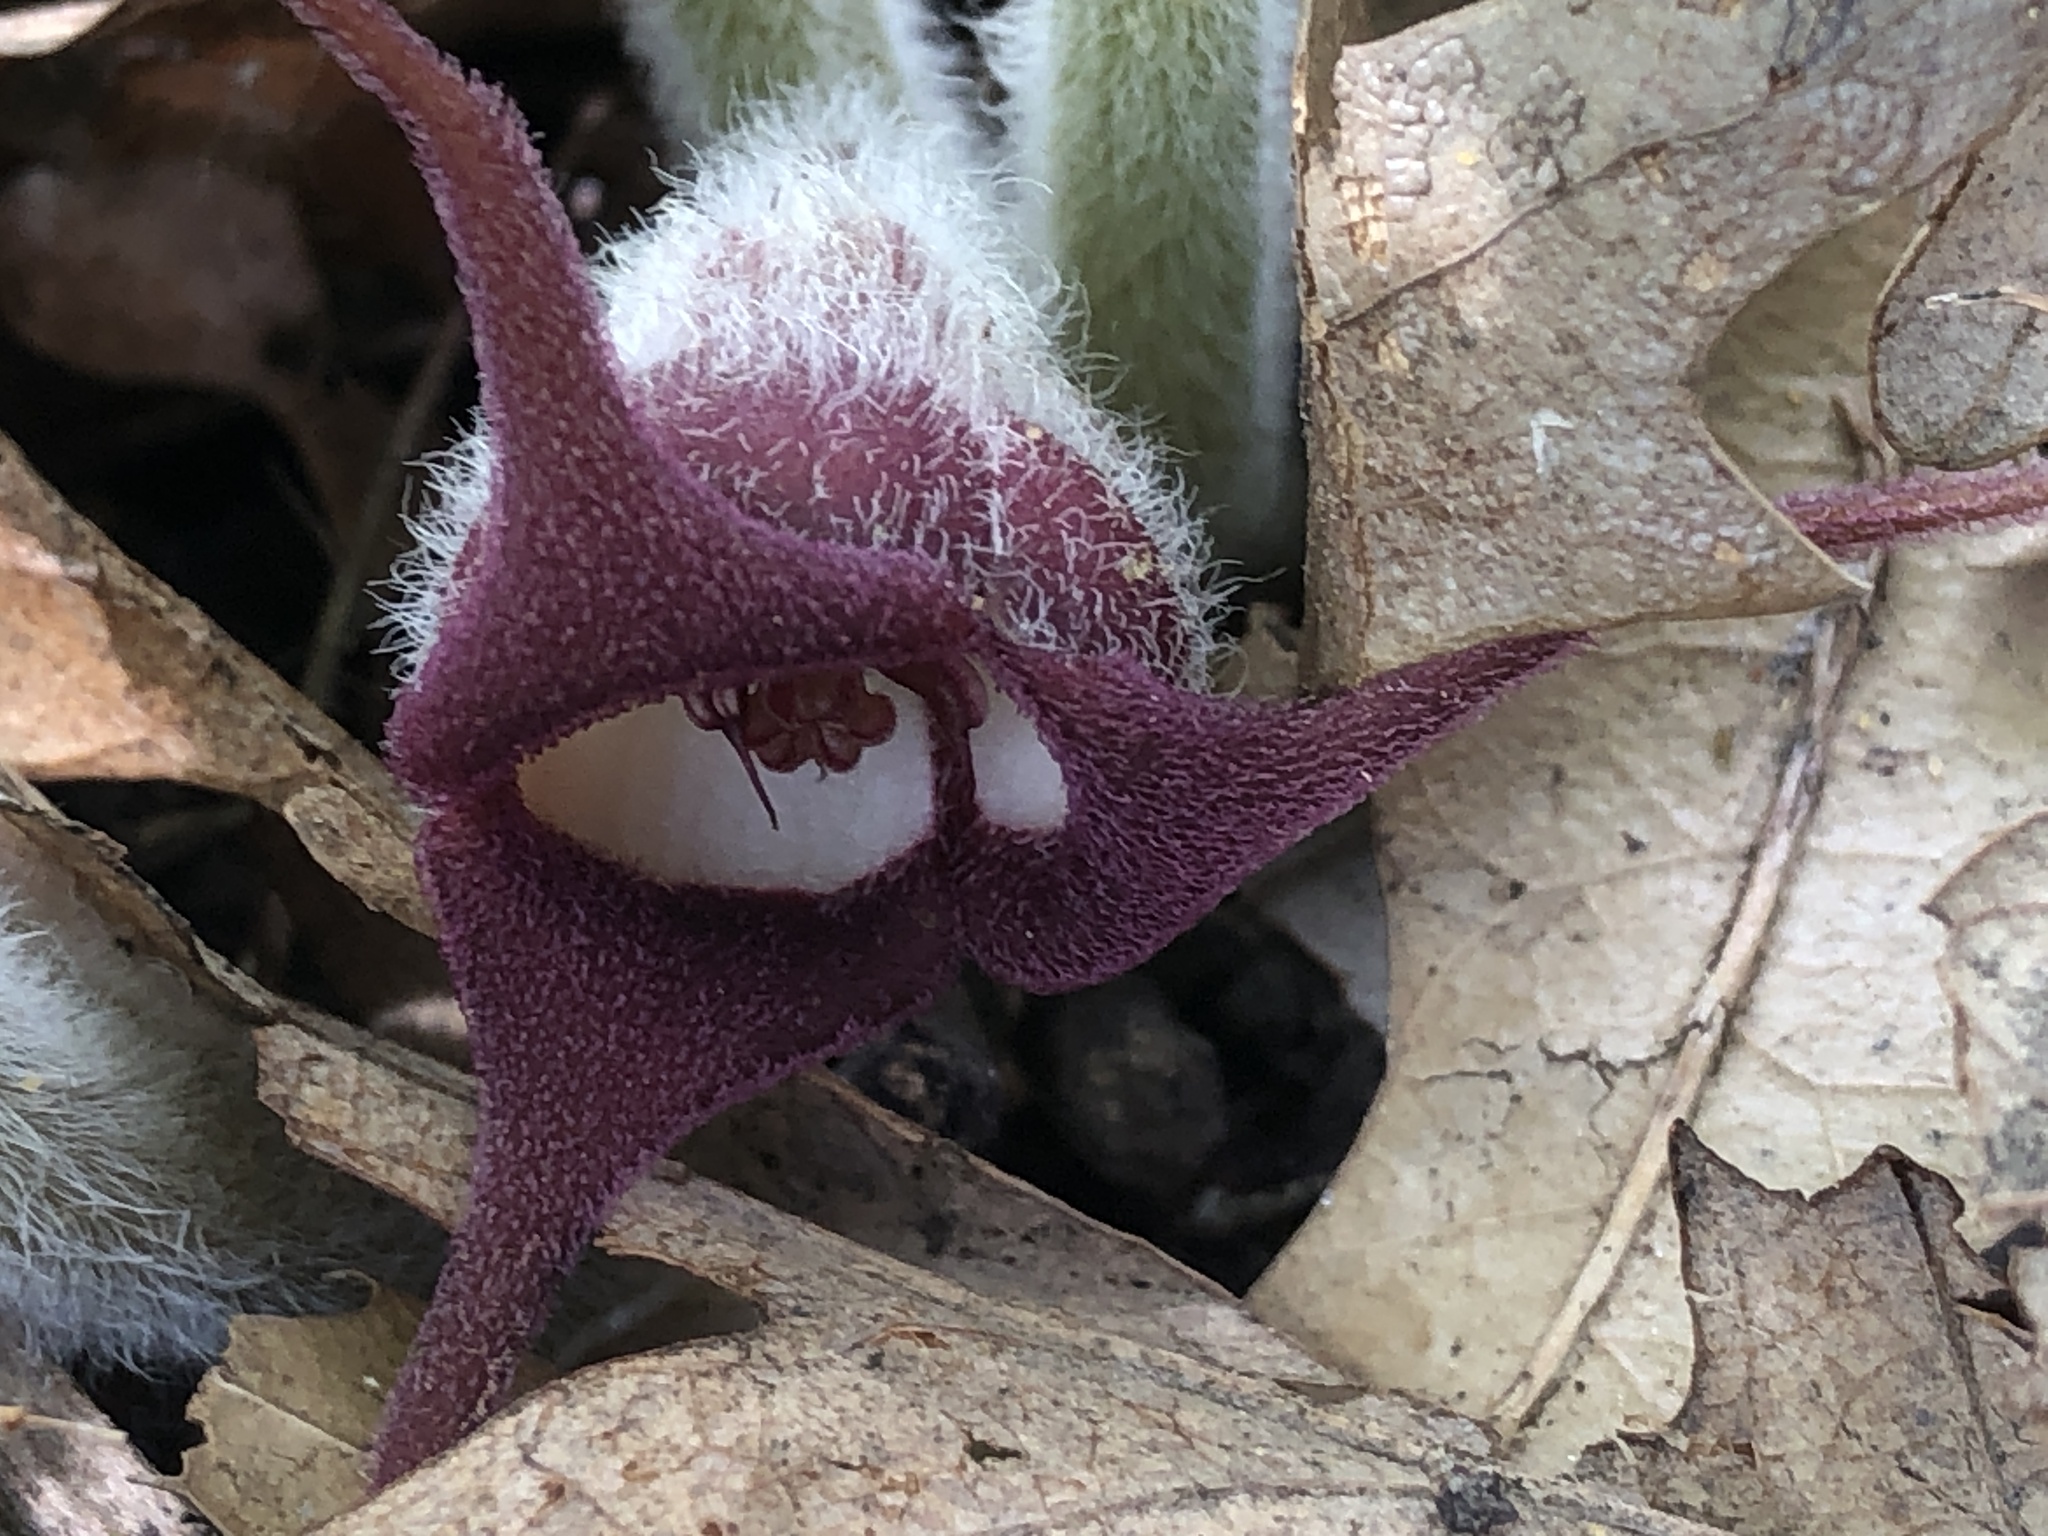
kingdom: Plantae
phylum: Tracheophyta
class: Magnoliopsida
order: Piperales
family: Aristolochiaceae
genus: Asarum
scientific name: Asarum canadense
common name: Wild ginger
